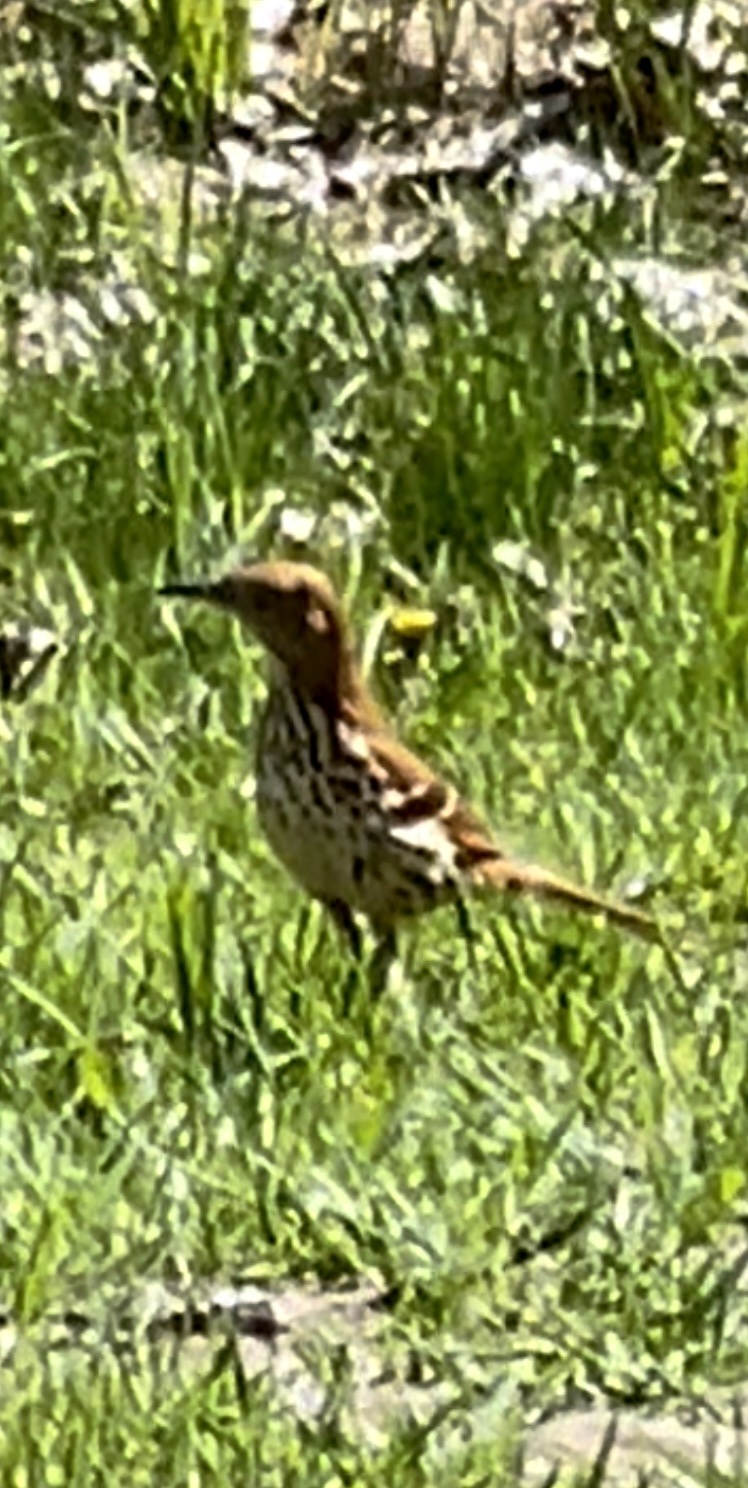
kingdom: Animalia
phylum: Chordata
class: Aves
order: Passeriformes
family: Mimidae
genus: Toxostoma
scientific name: Toxostoma rufum
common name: Brown thrasher
